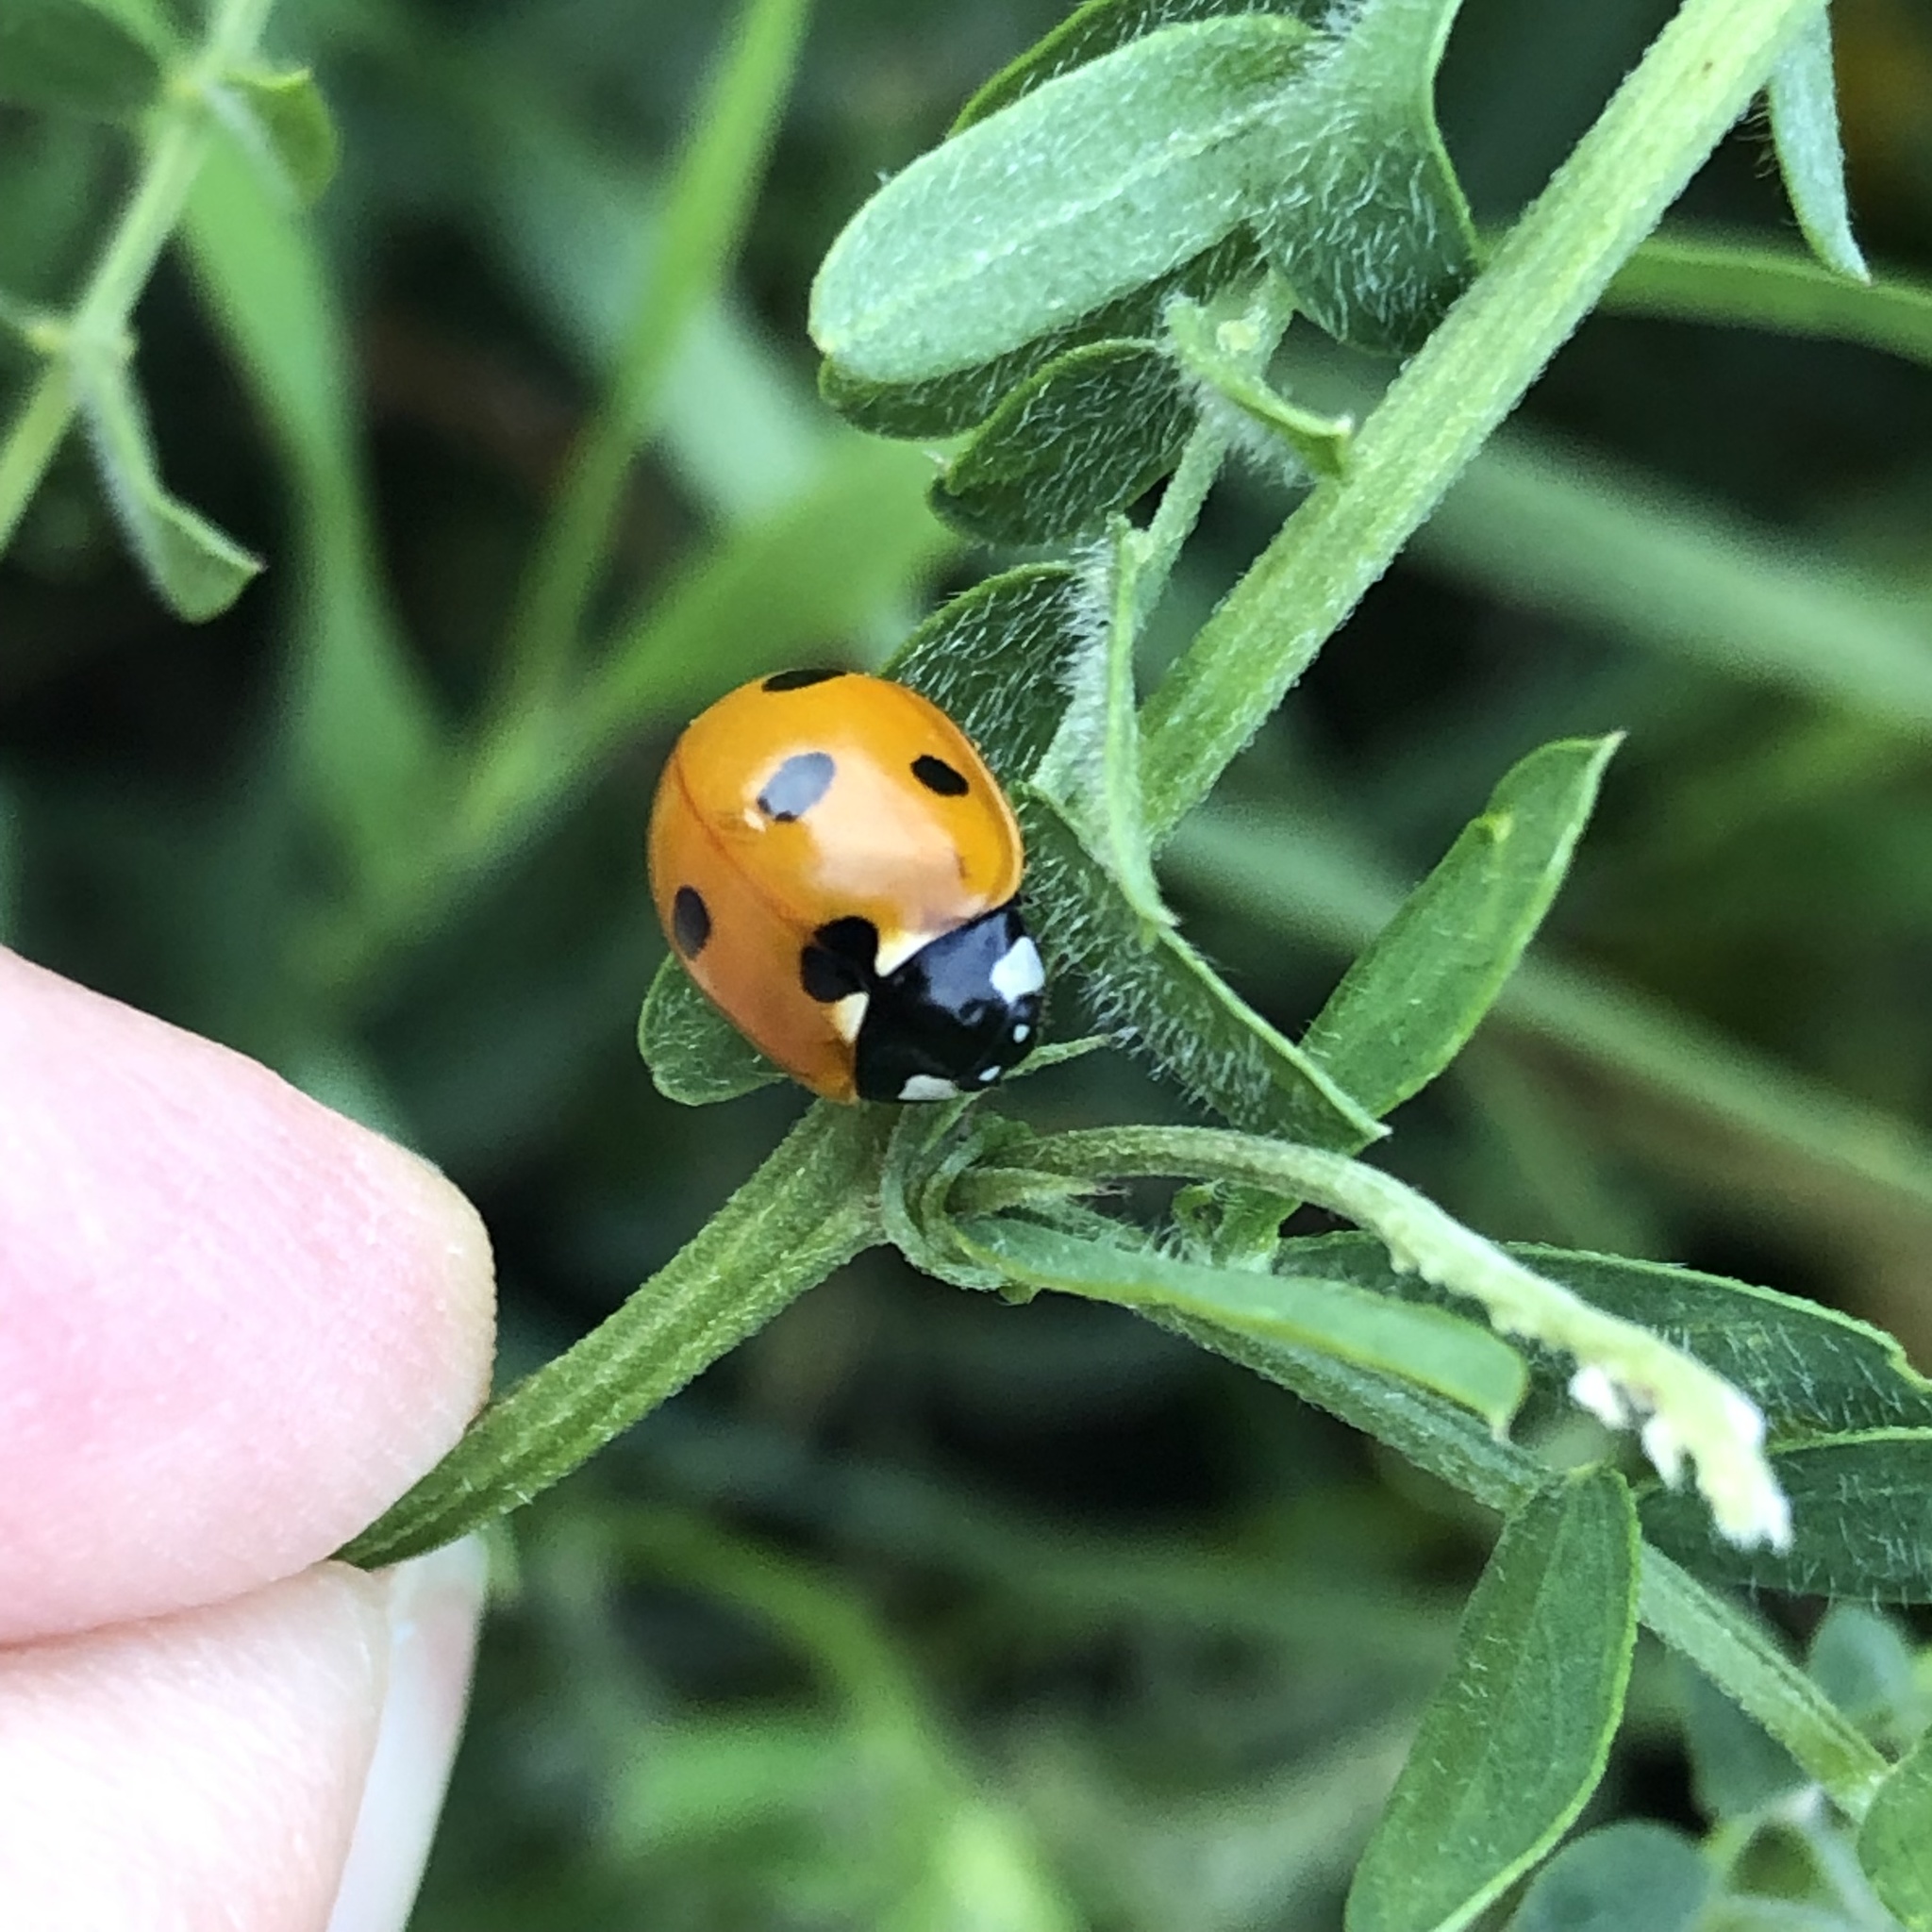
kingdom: Animalia
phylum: Arthropoda
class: Insecta
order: Coleoptera
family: Coccinellidae
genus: Coccinella
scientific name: Coccinella septempunctata
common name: Sevenspotted lady beetle
